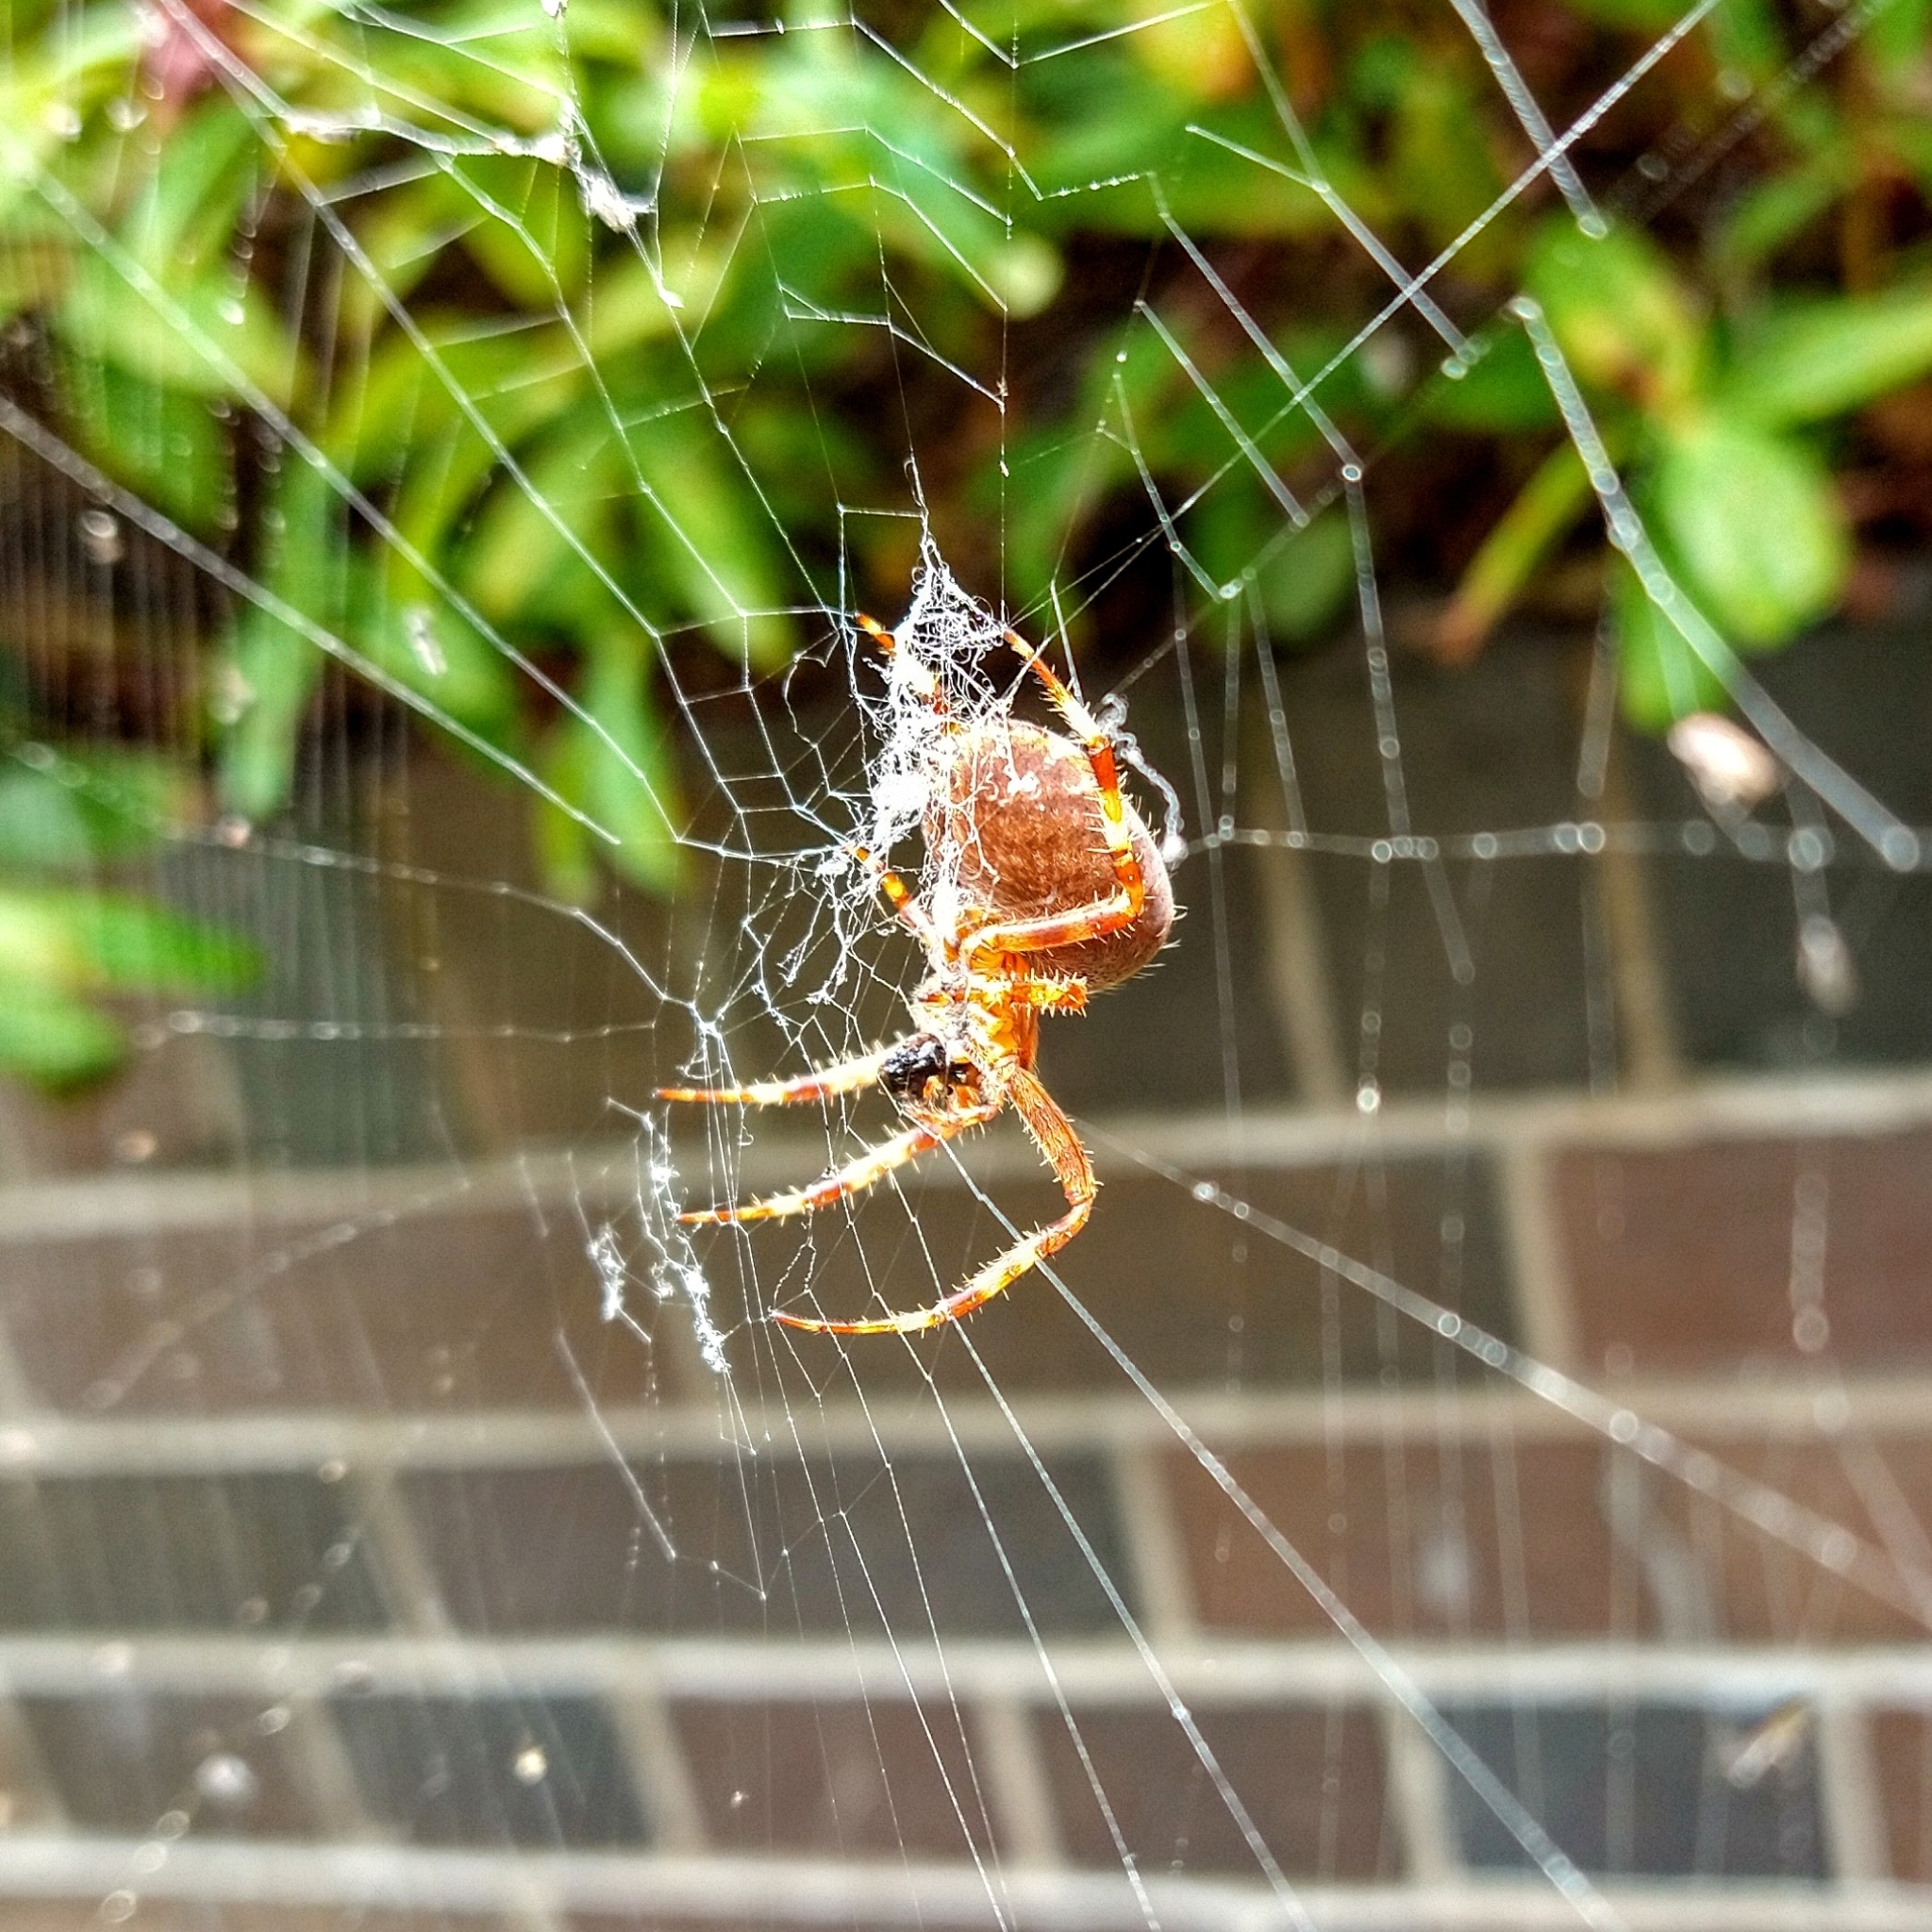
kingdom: Animalia
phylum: Arthropoda
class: Arachnida
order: Araneae
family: Araneidae
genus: Araneus
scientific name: Araneus diadematus
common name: Cross orbweaver
